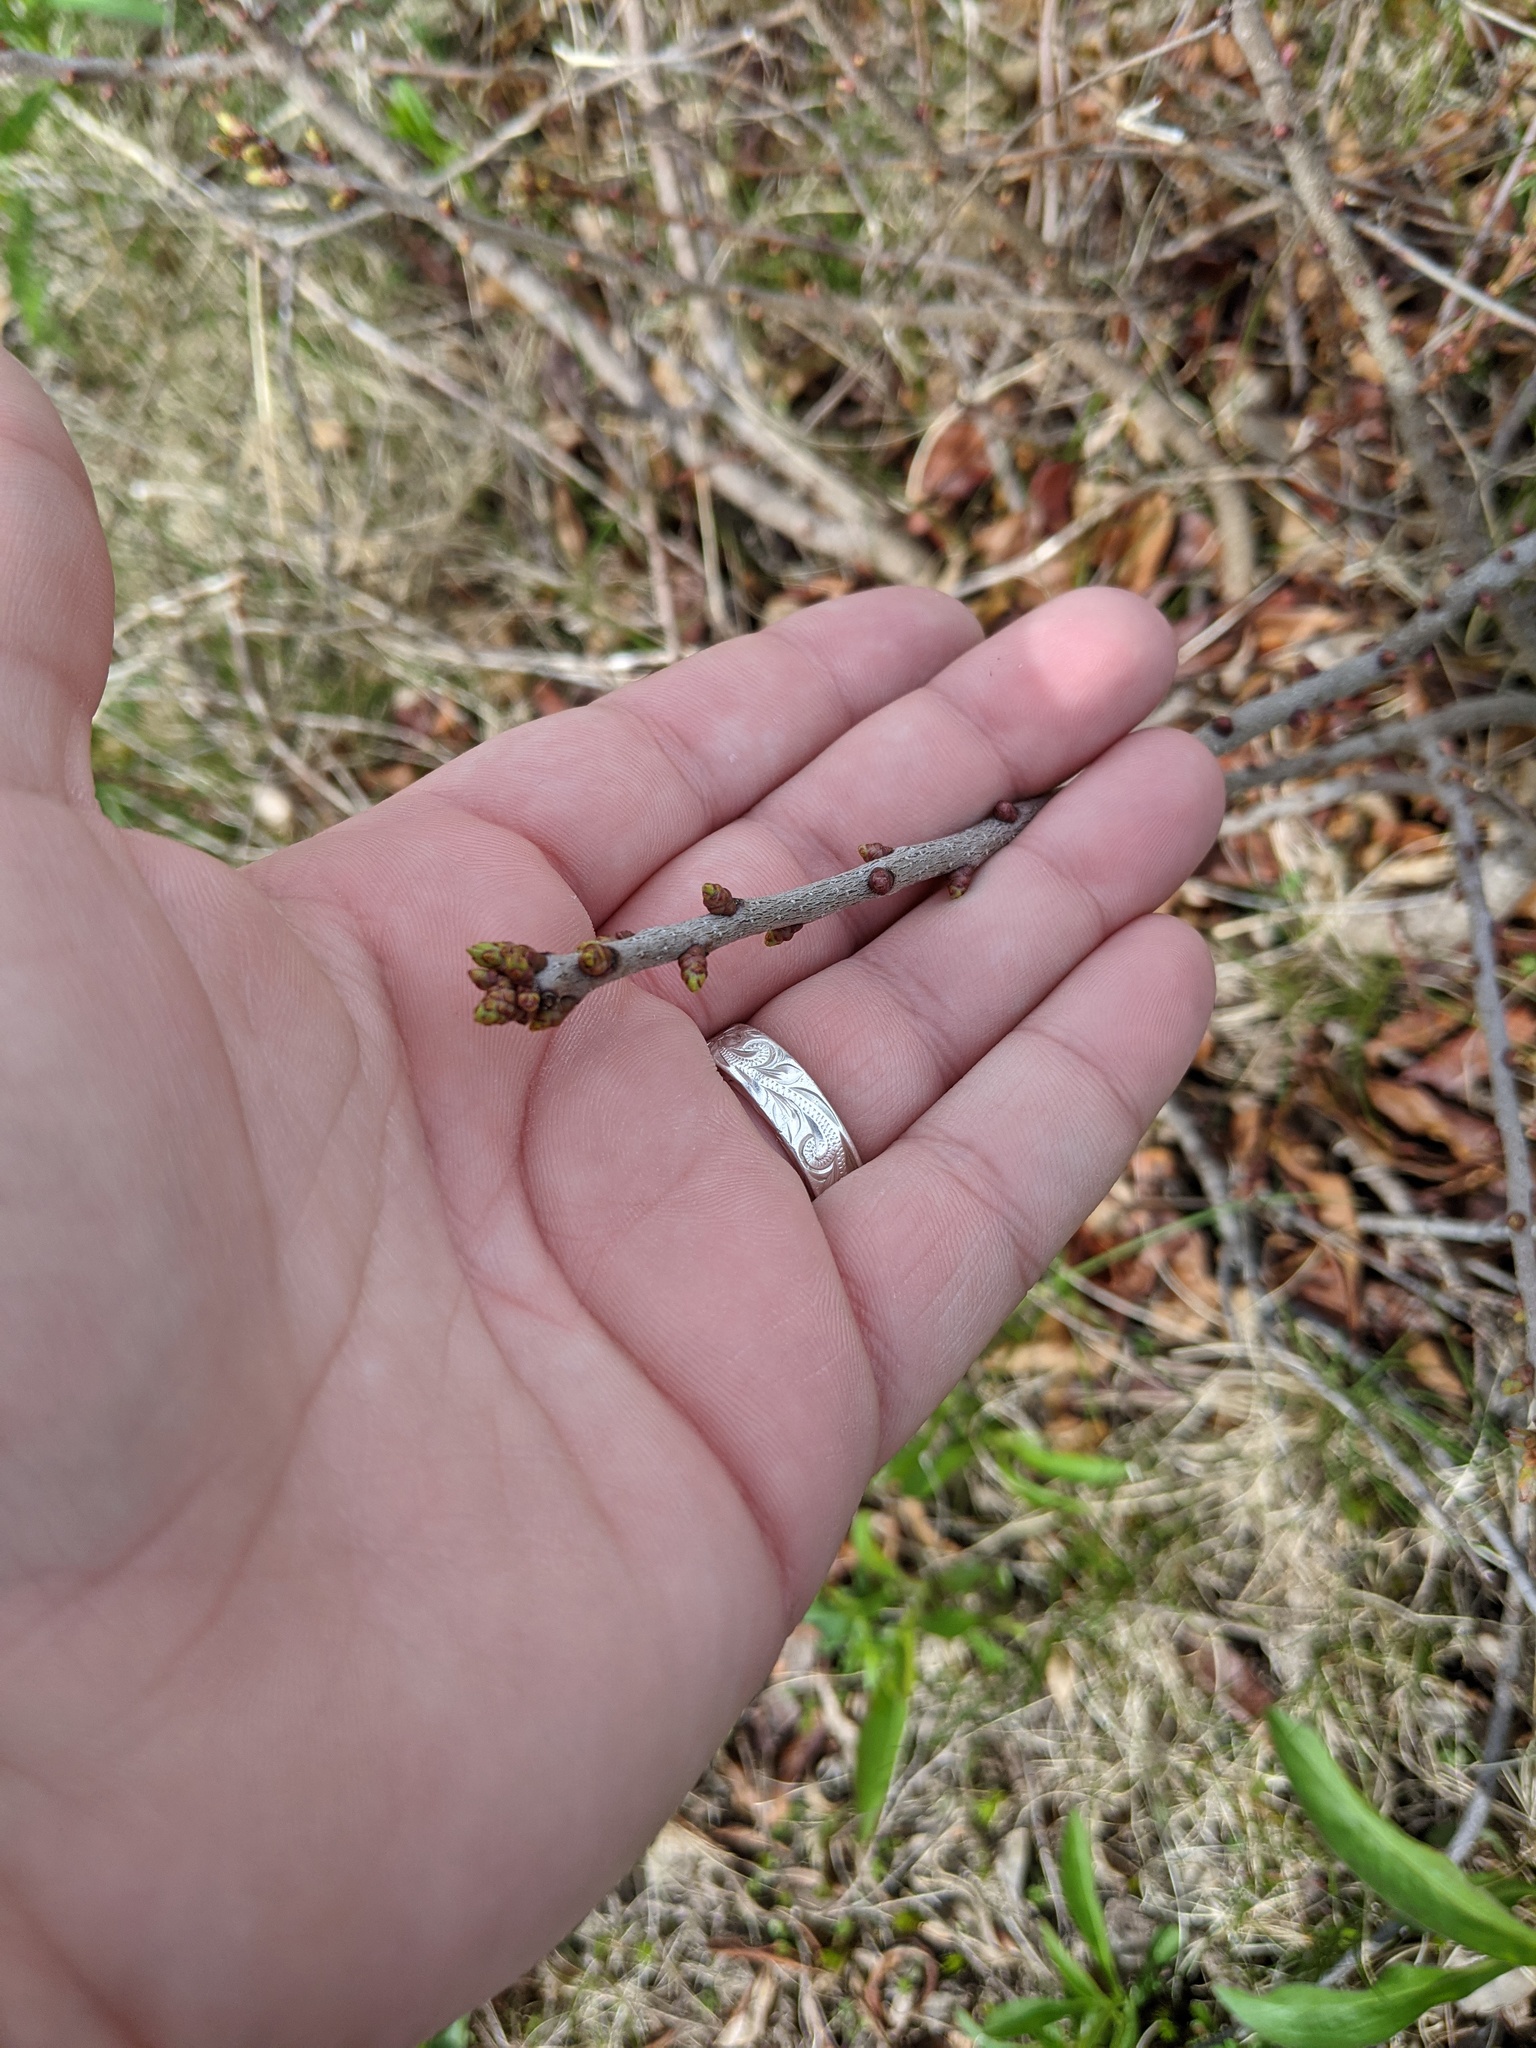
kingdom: Plantae
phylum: Tracheophyta
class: Magnoliopsida
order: Fagales
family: Myricaceae
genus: Morella
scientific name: Morella pensylvanica
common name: Northern bayberry
